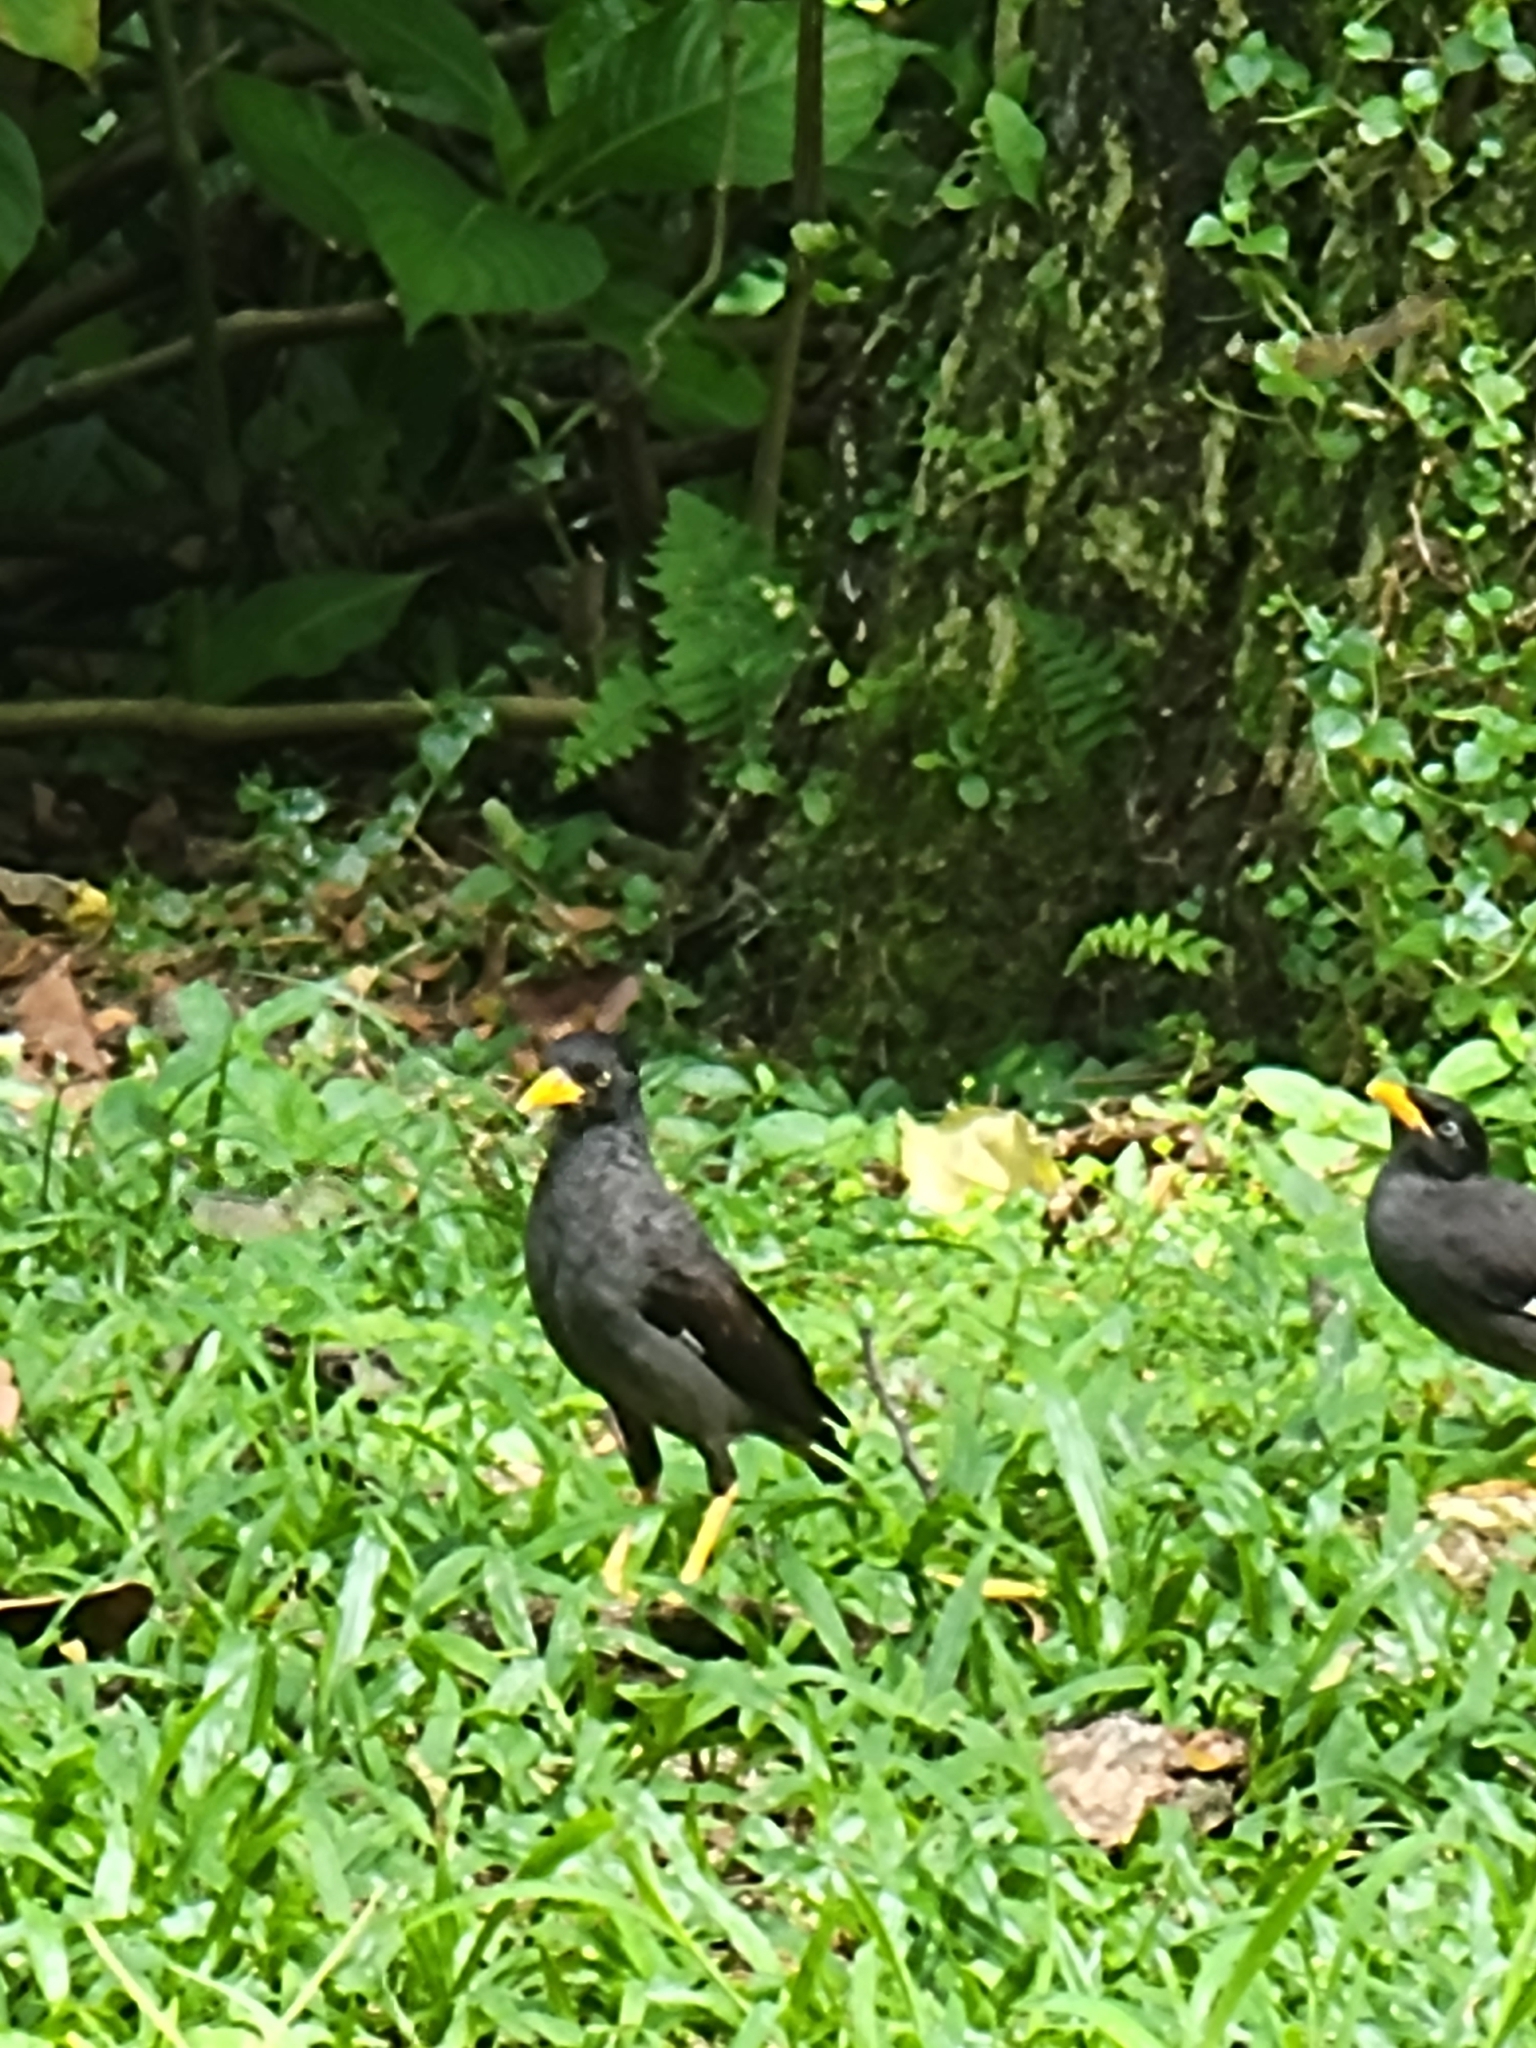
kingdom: Animalia
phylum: Chordata
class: Aves
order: Passeriformes
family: Sturnidae
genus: Acridotheres
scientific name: Acridotheres javanicus
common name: Javan myna
